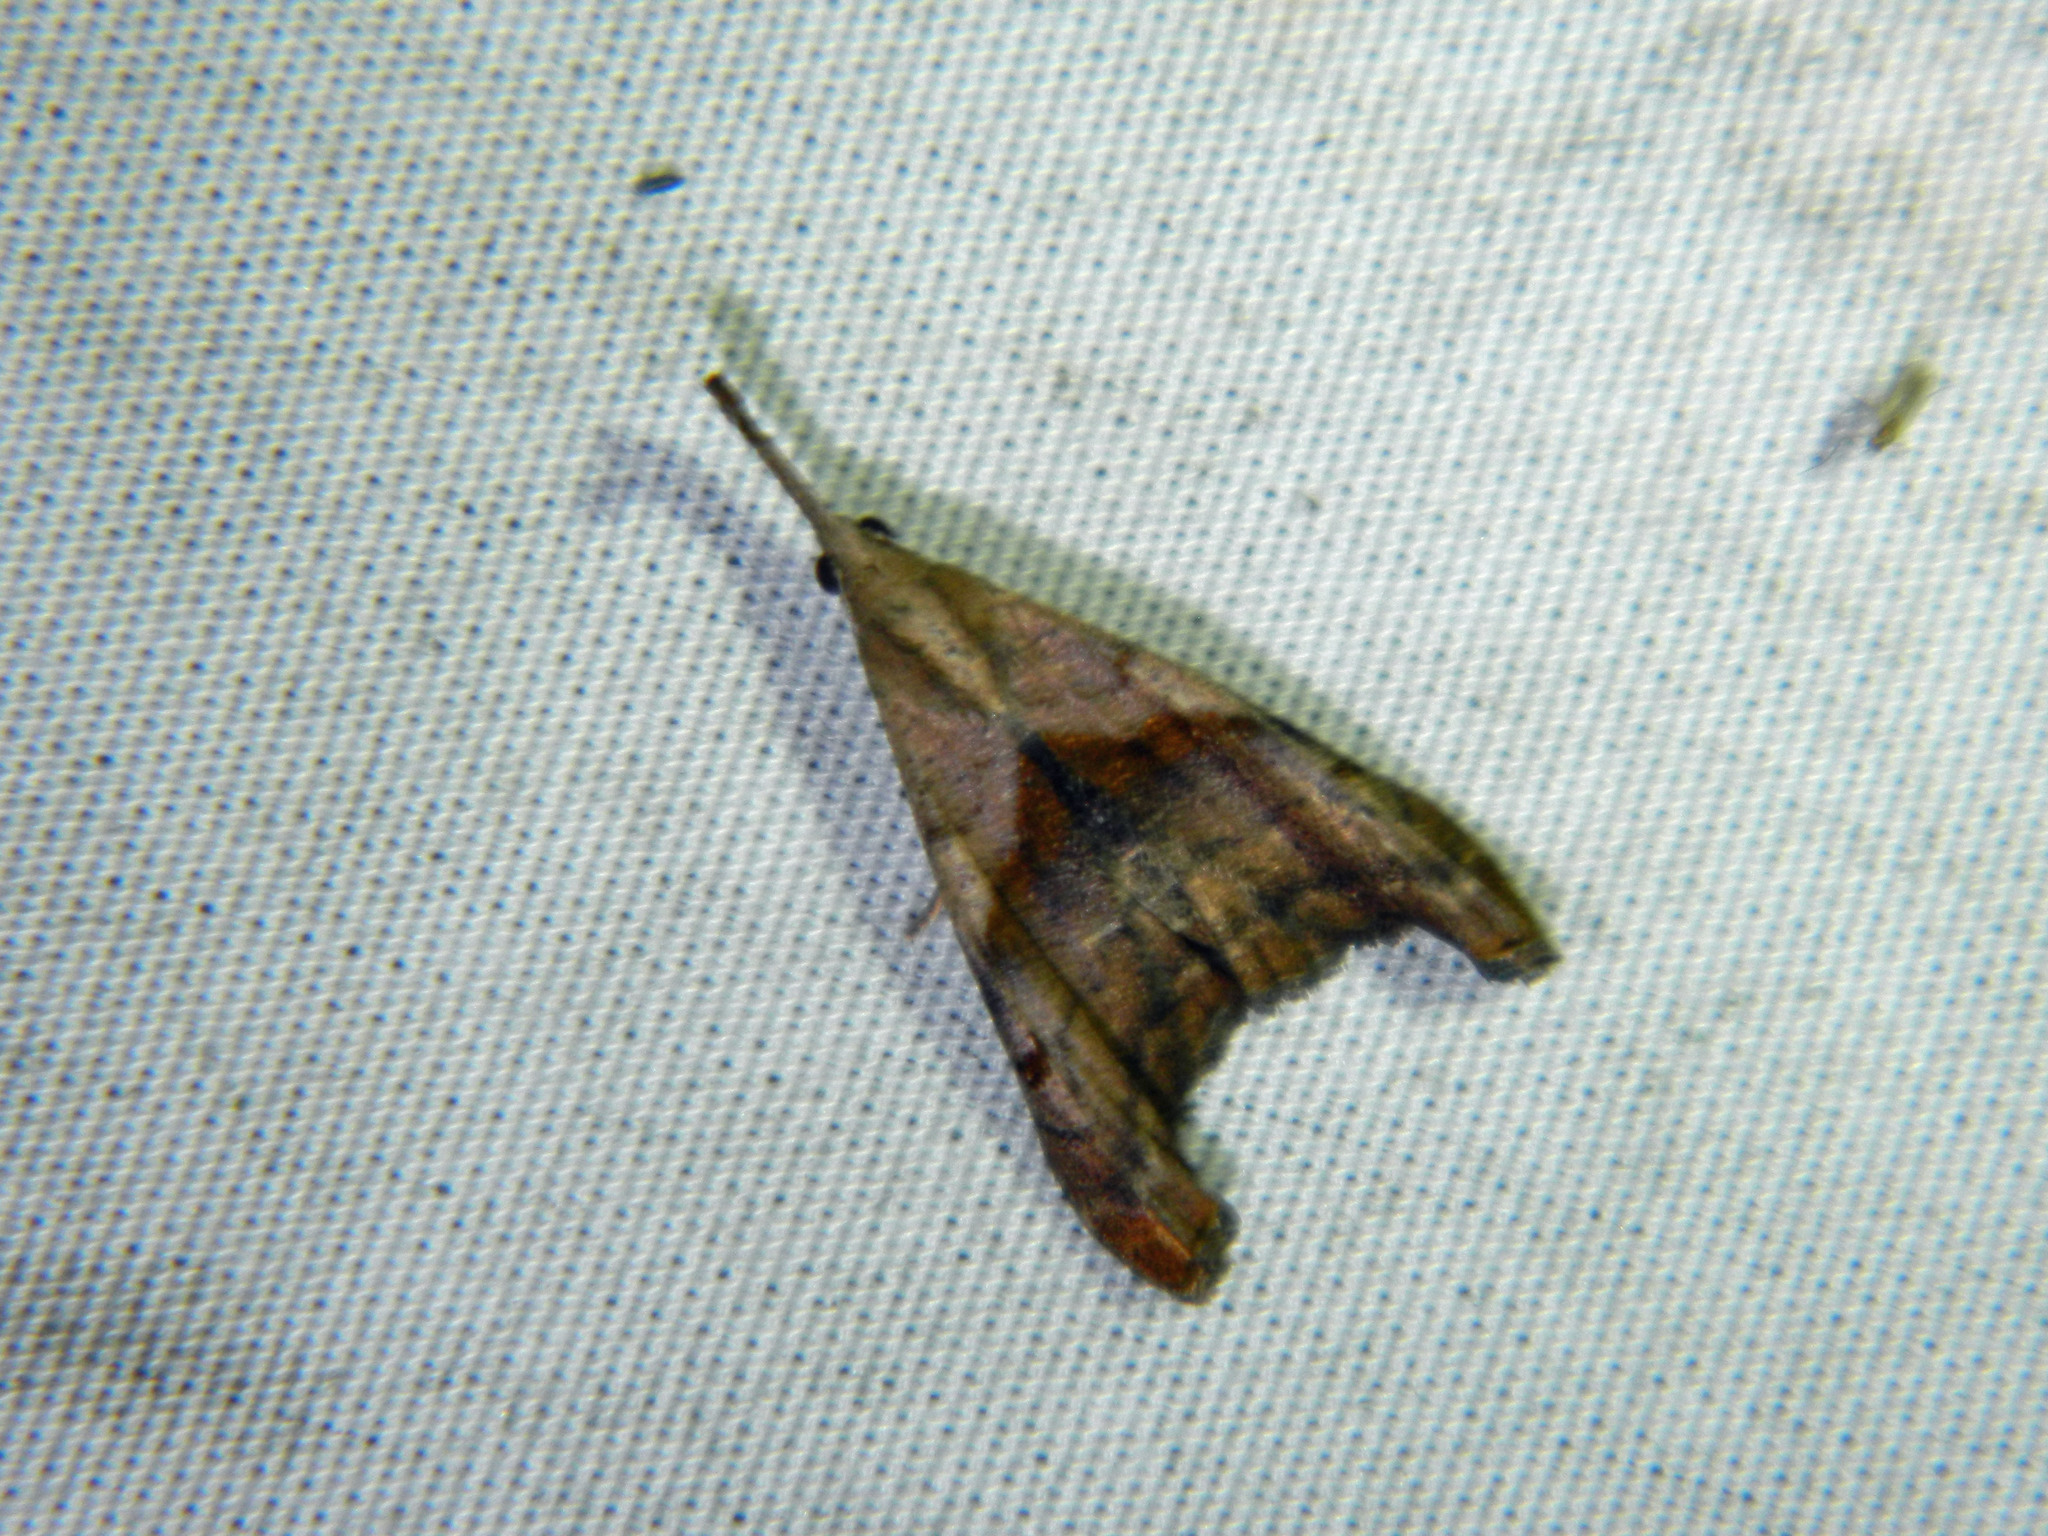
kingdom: Animalia
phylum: Arthropoda
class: Insecta
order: Lepidoptera
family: Erebidae
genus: Palthis
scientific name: Palthis angulalis
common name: Dark-spotted palthis moth
